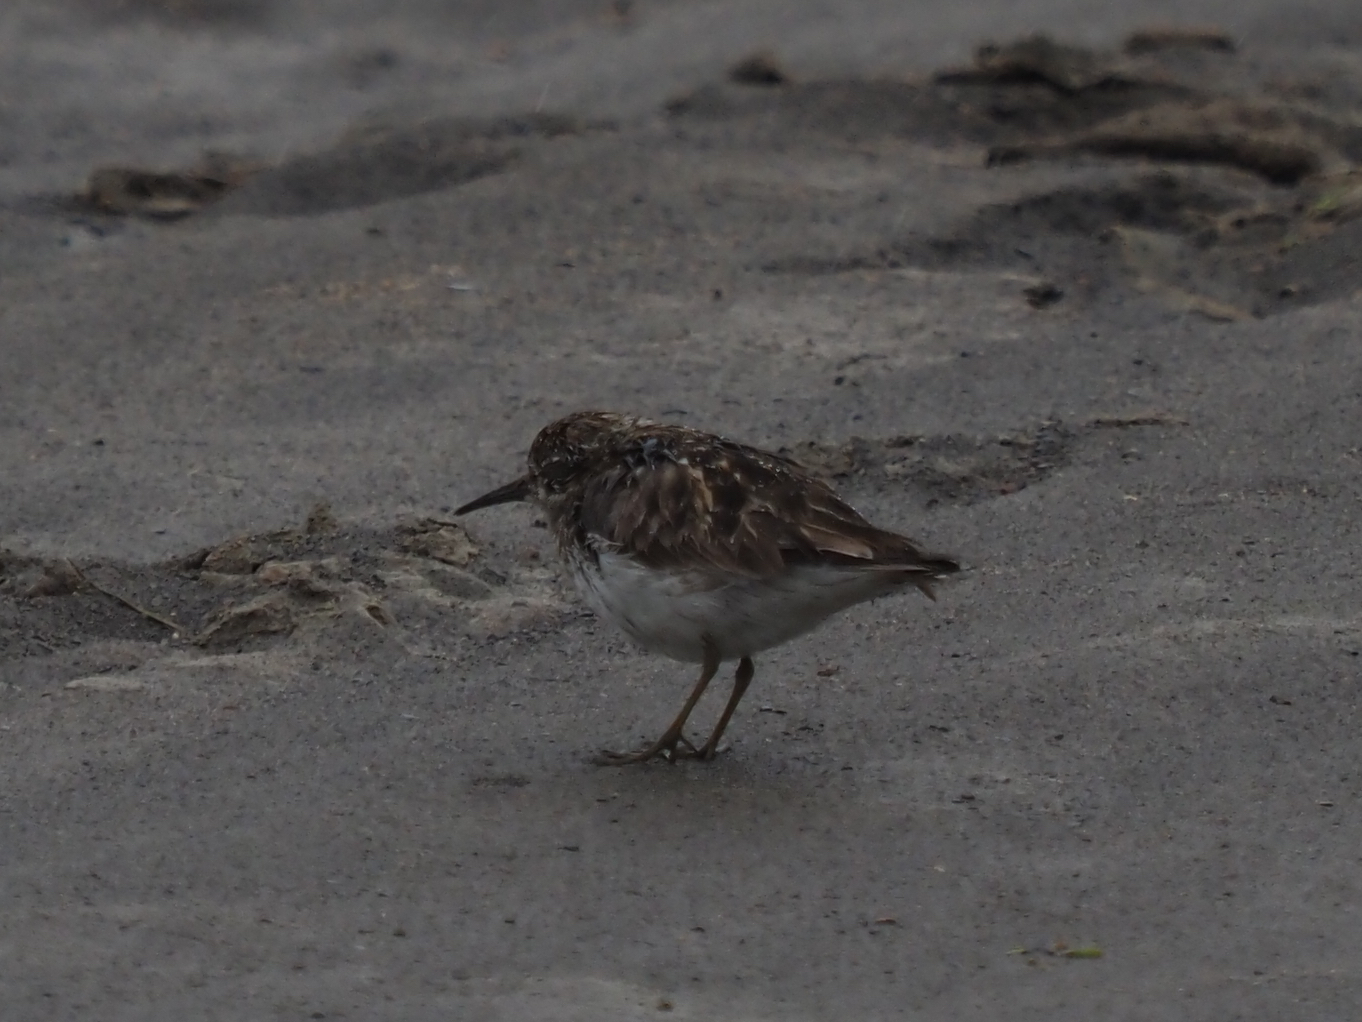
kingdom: Animalia
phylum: Chordata
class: Aves
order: Charadriiformes
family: Scolopacidae
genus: Calidris
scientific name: Calidris minutilla
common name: Least sandpiper
